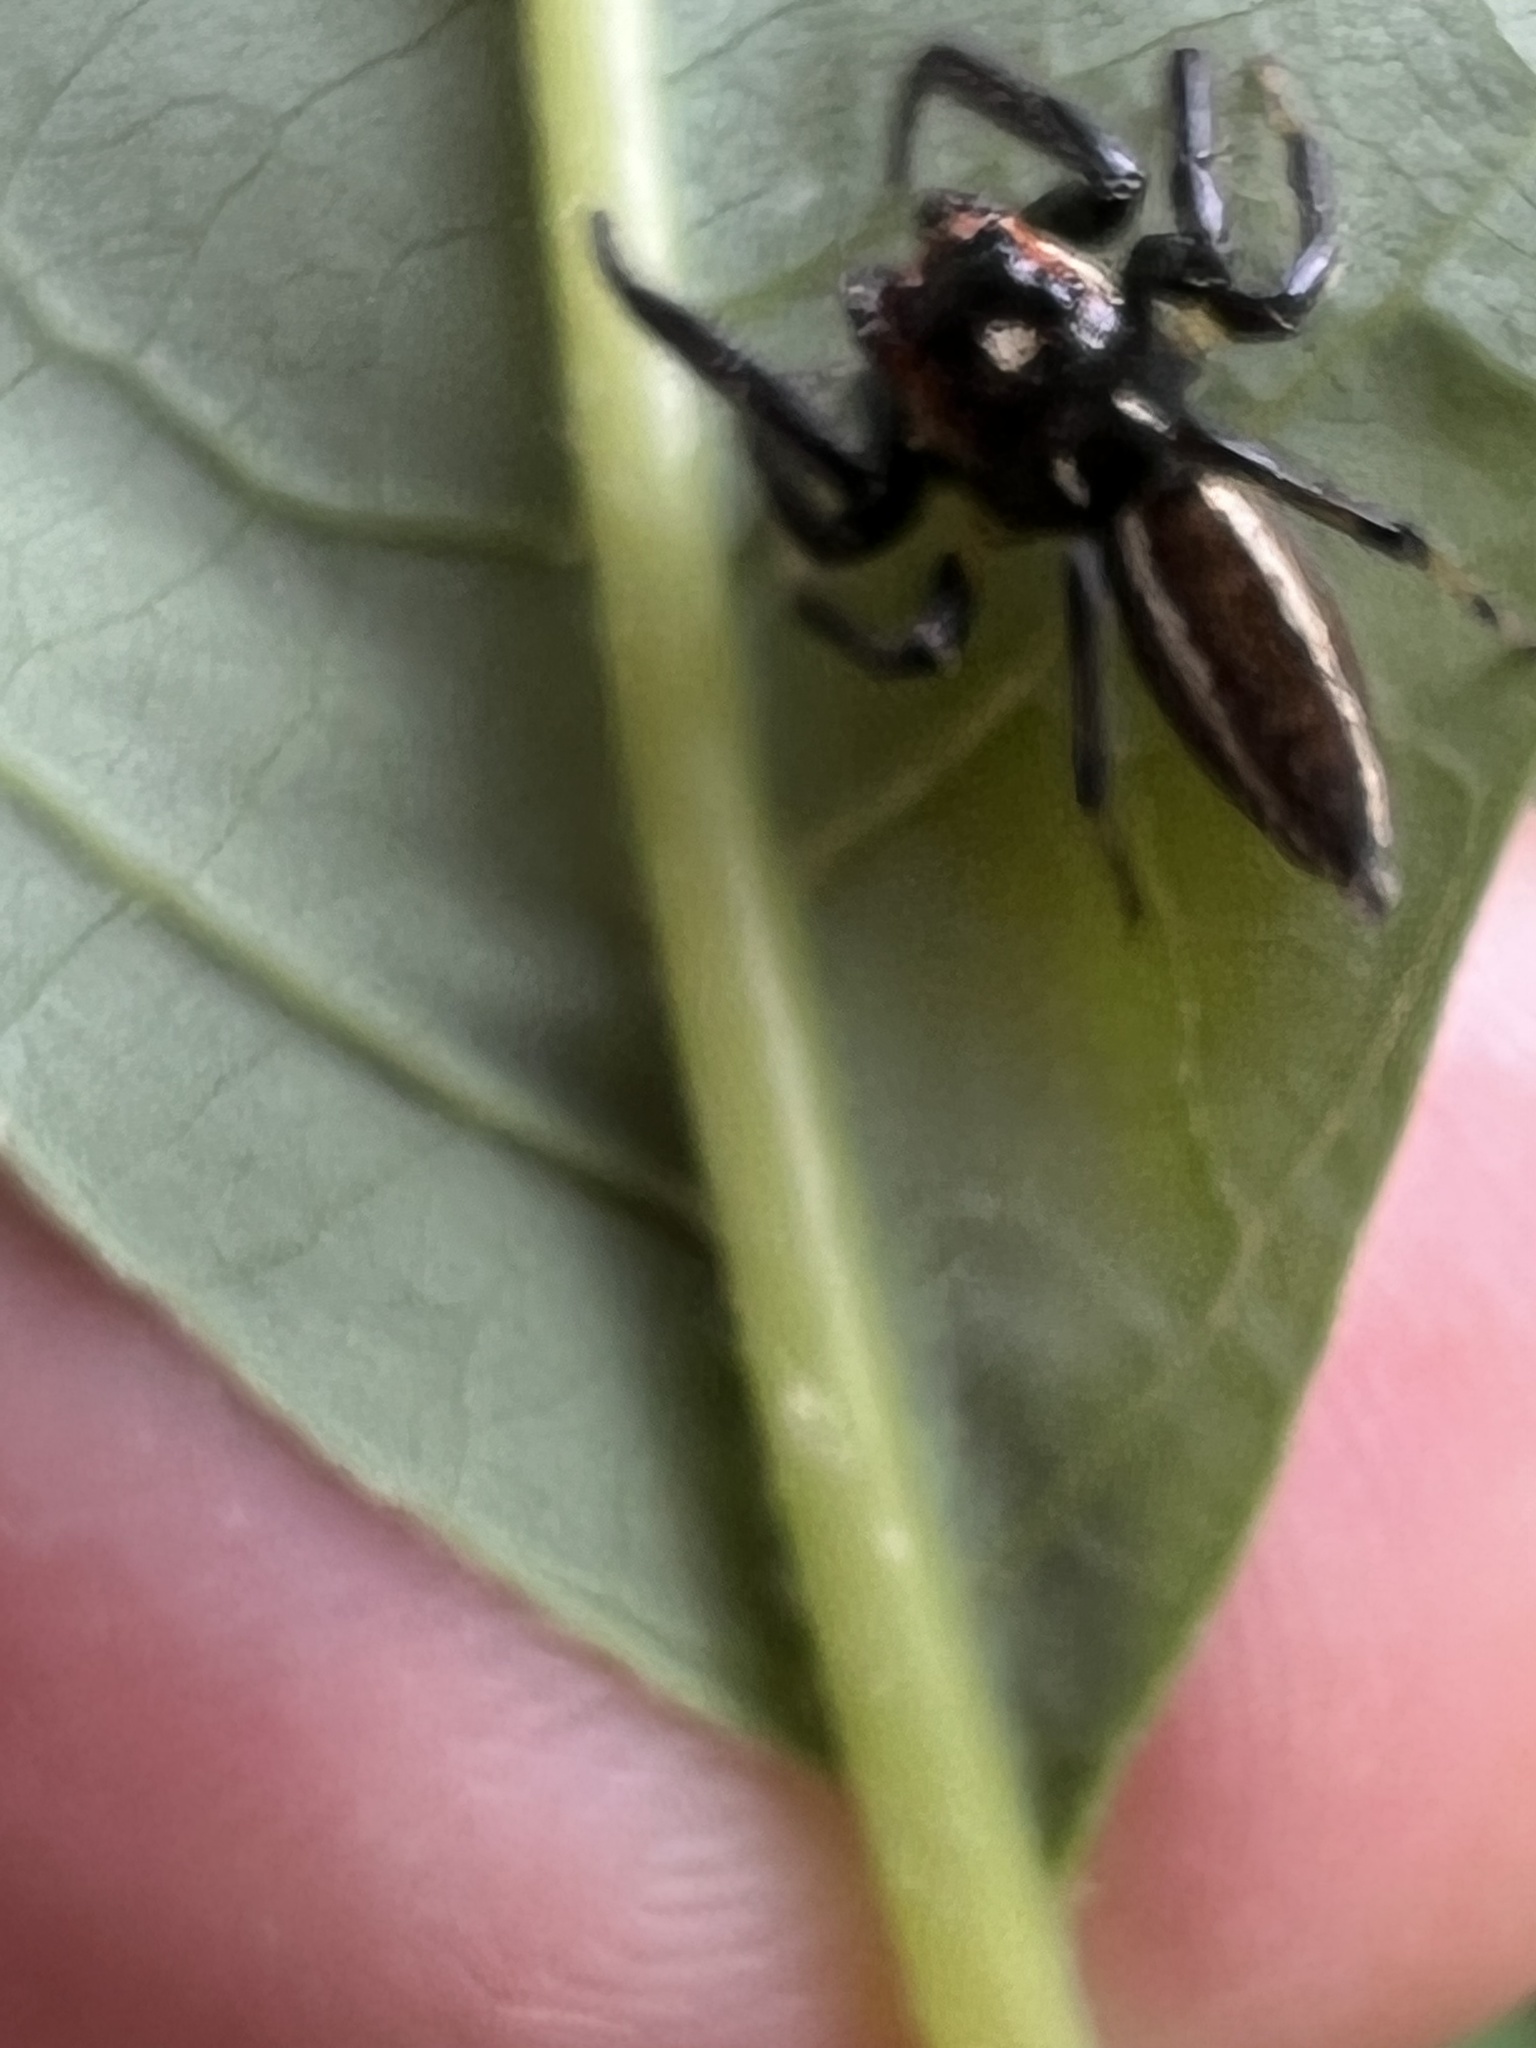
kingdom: Animalia
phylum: Arthropoda
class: Arachnida
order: Araneae
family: Salticidae
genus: Colonus
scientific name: Colonus sylvanus
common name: Jumping spiders
